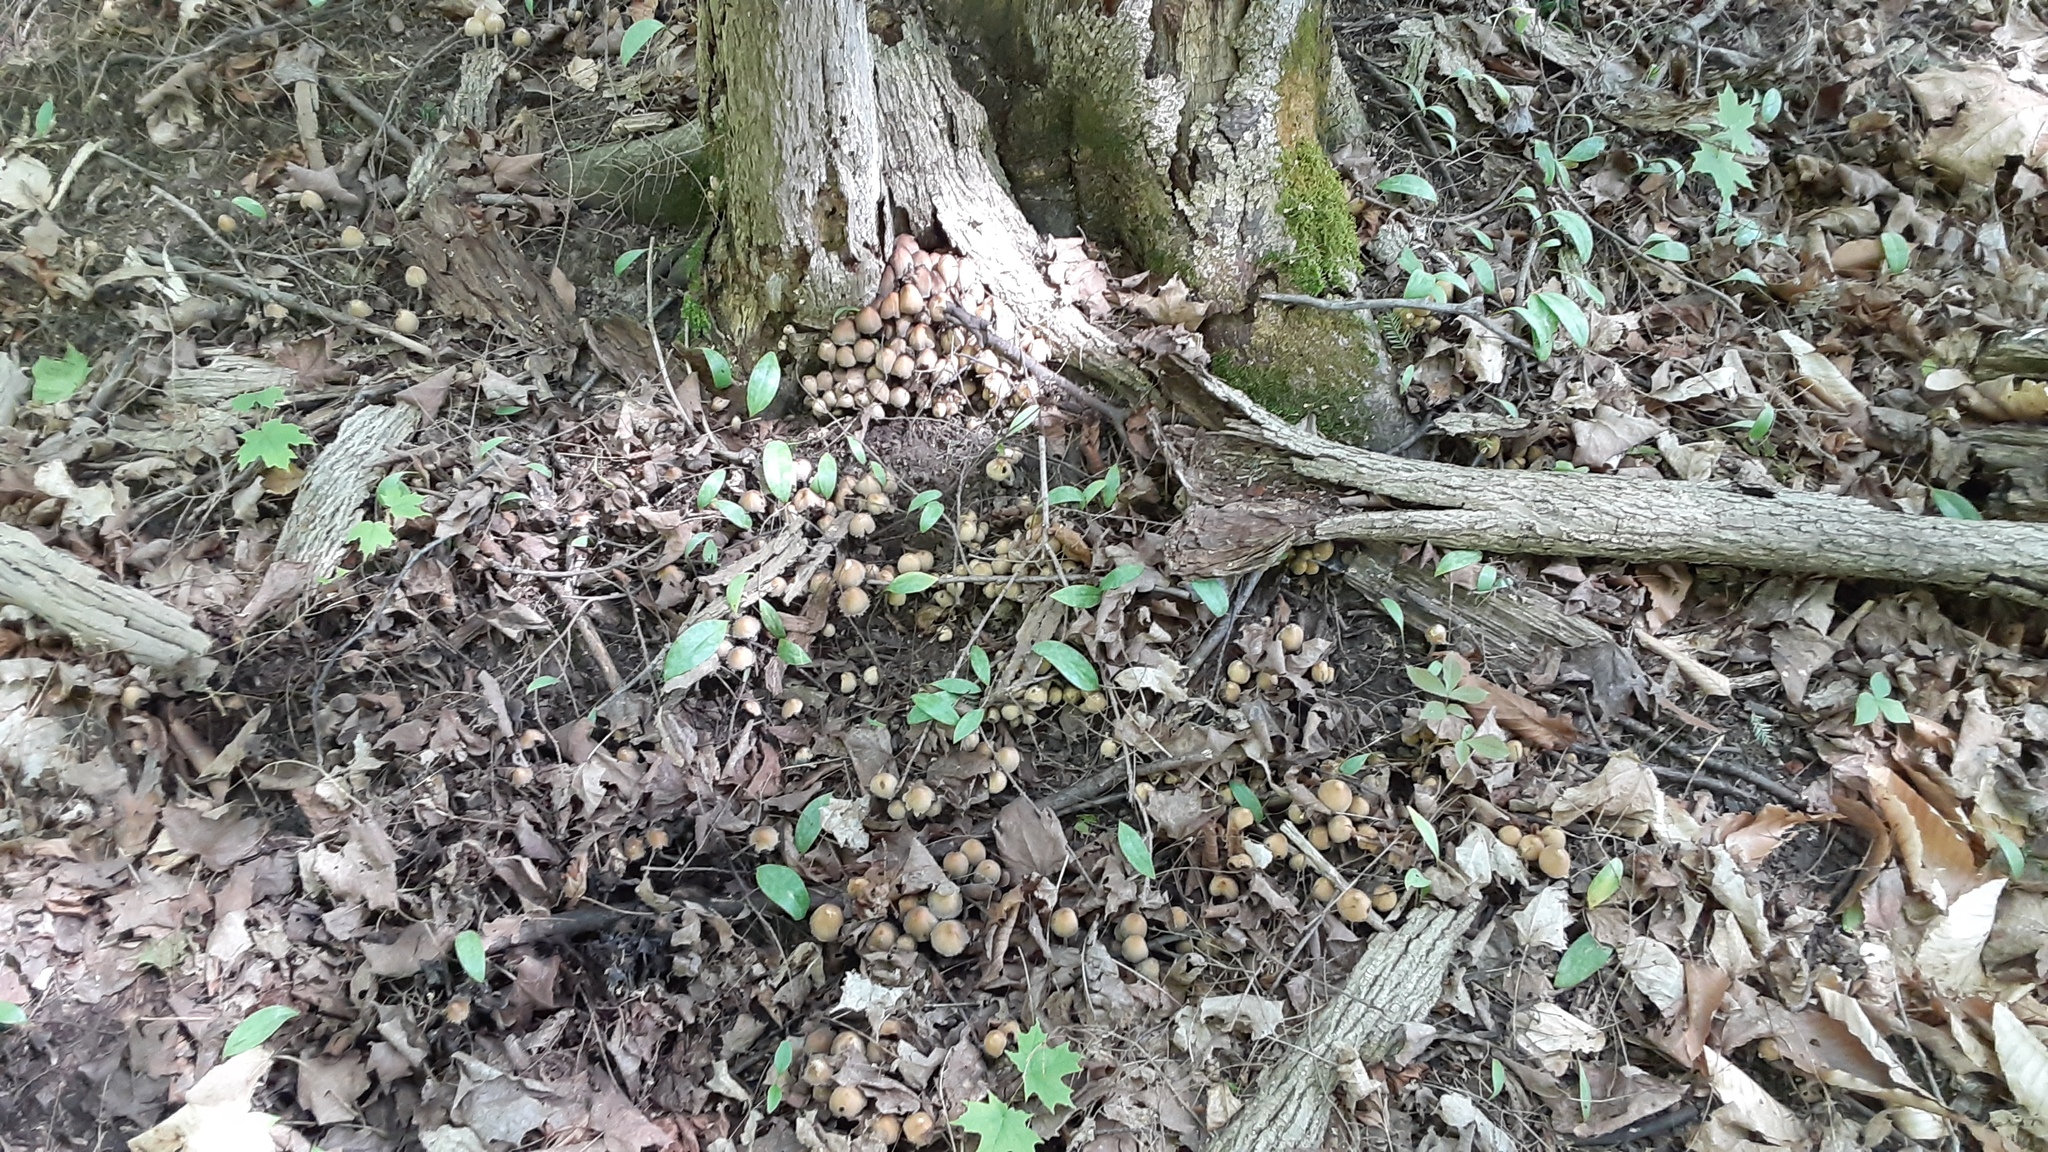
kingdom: Fungi
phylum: Basidiomycota
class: Agaricomycetes
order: Agaricales
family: Psathyrellaceae
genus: Coprinellus
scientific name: Coprinellus micaceus
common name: Glistening ink-cap
